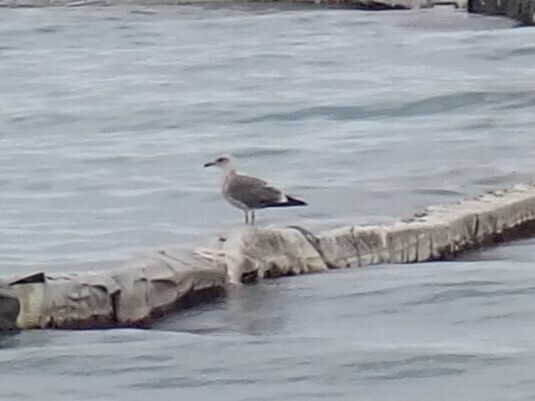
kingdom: Animalia
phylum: Chordata
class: Aves
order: Charadriiformes
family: Laridae
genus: Larus
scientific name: Larus fuscus
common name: Lesser black-backed gull
